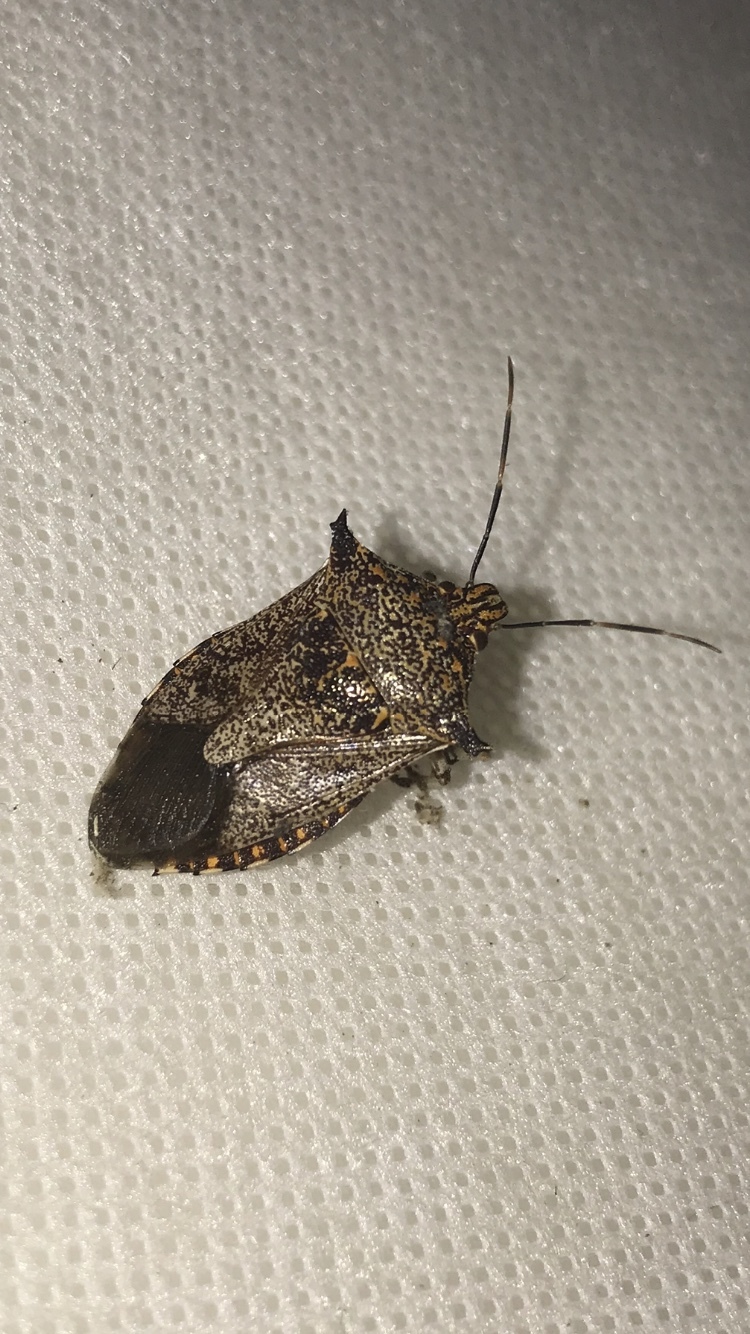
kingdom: Animalia
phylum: Arthropoda
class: Insecta
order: Hemiptera
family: Pentatomidae
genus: Alcaeorrhynchus
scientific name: Alcaeorrhynchus grandis
